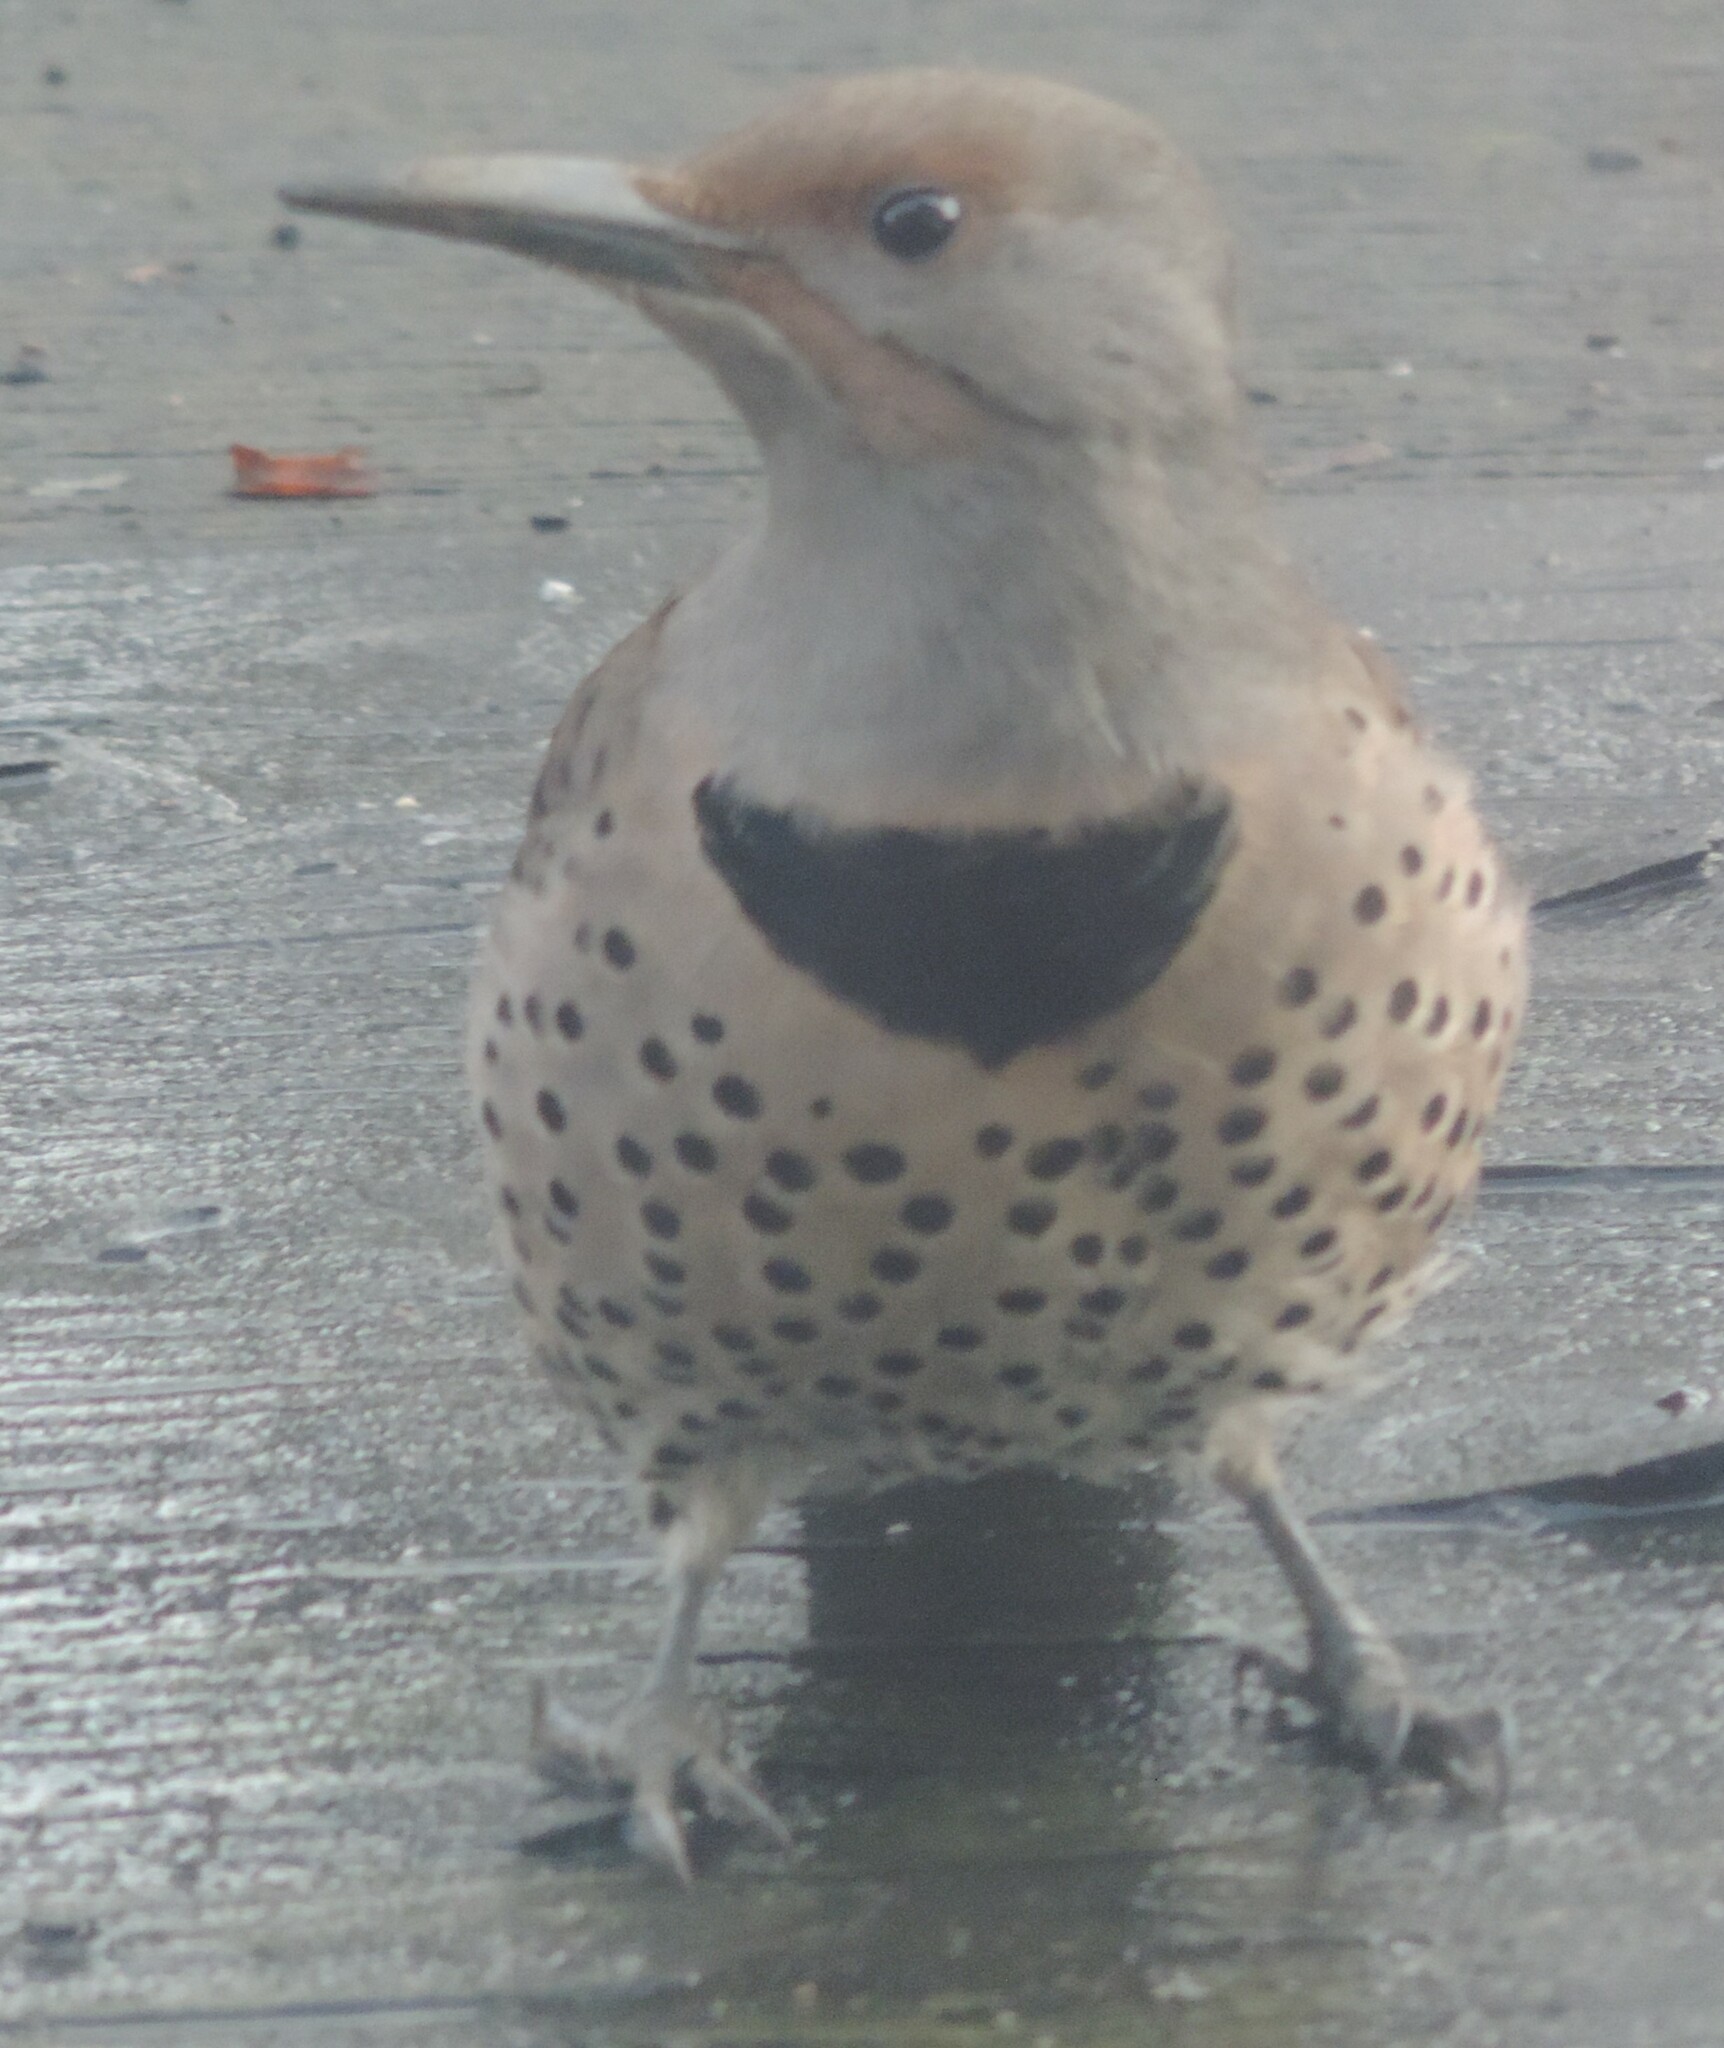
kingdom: Animalia
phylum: Chordata
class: Aves
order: Piciformes
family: Picidae
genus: Colaptes
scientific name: Colaptes auratus
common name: Northern flicker
